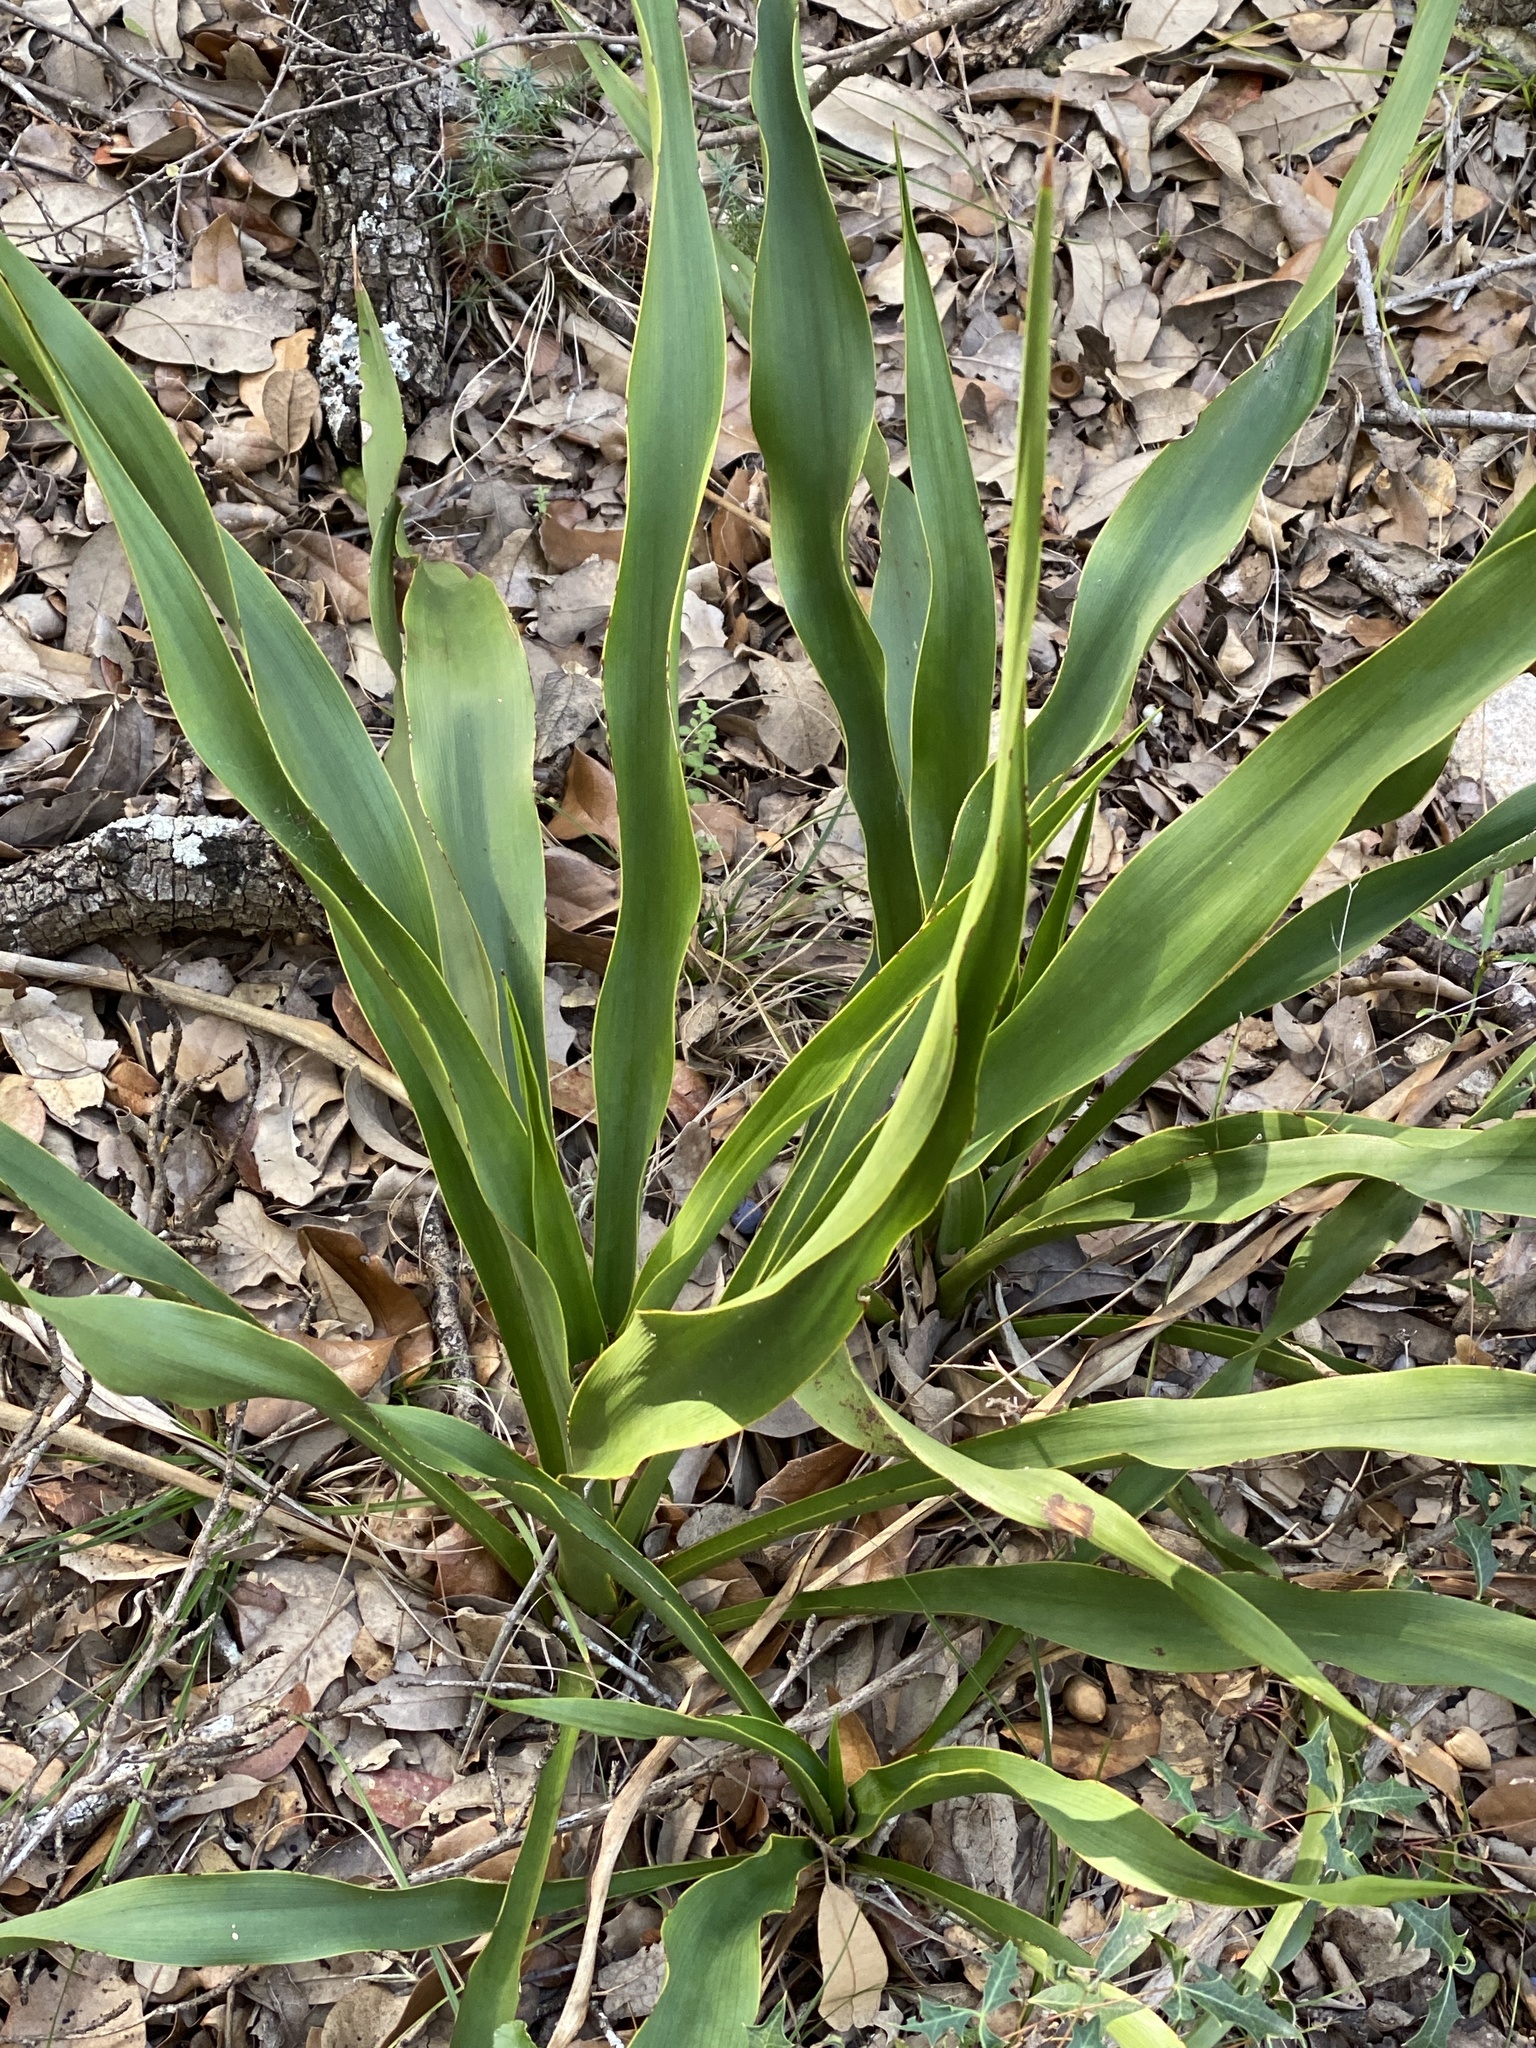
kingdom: Plantae
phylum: Tracheophyta
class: Liliopsida
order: Asparagales
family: Asparagaceae
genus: Yucca
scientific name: Yucca rupicola
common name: Twisted-leaf spanish-dagger
